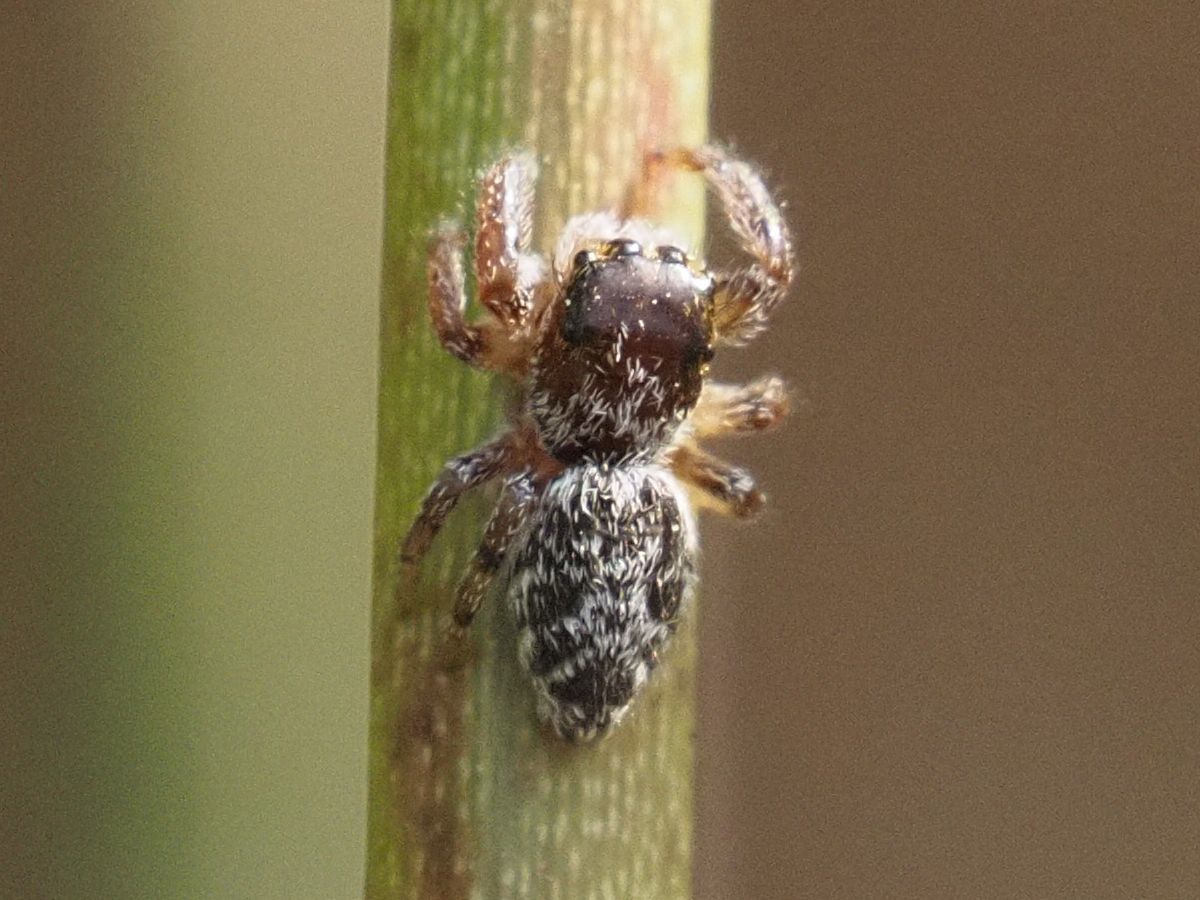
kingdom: Animalia
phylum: Arthropoda
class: Arachnida
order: Araneae
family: Salticidae
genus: Macaroeris
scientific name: Macaroeris nidicolens
